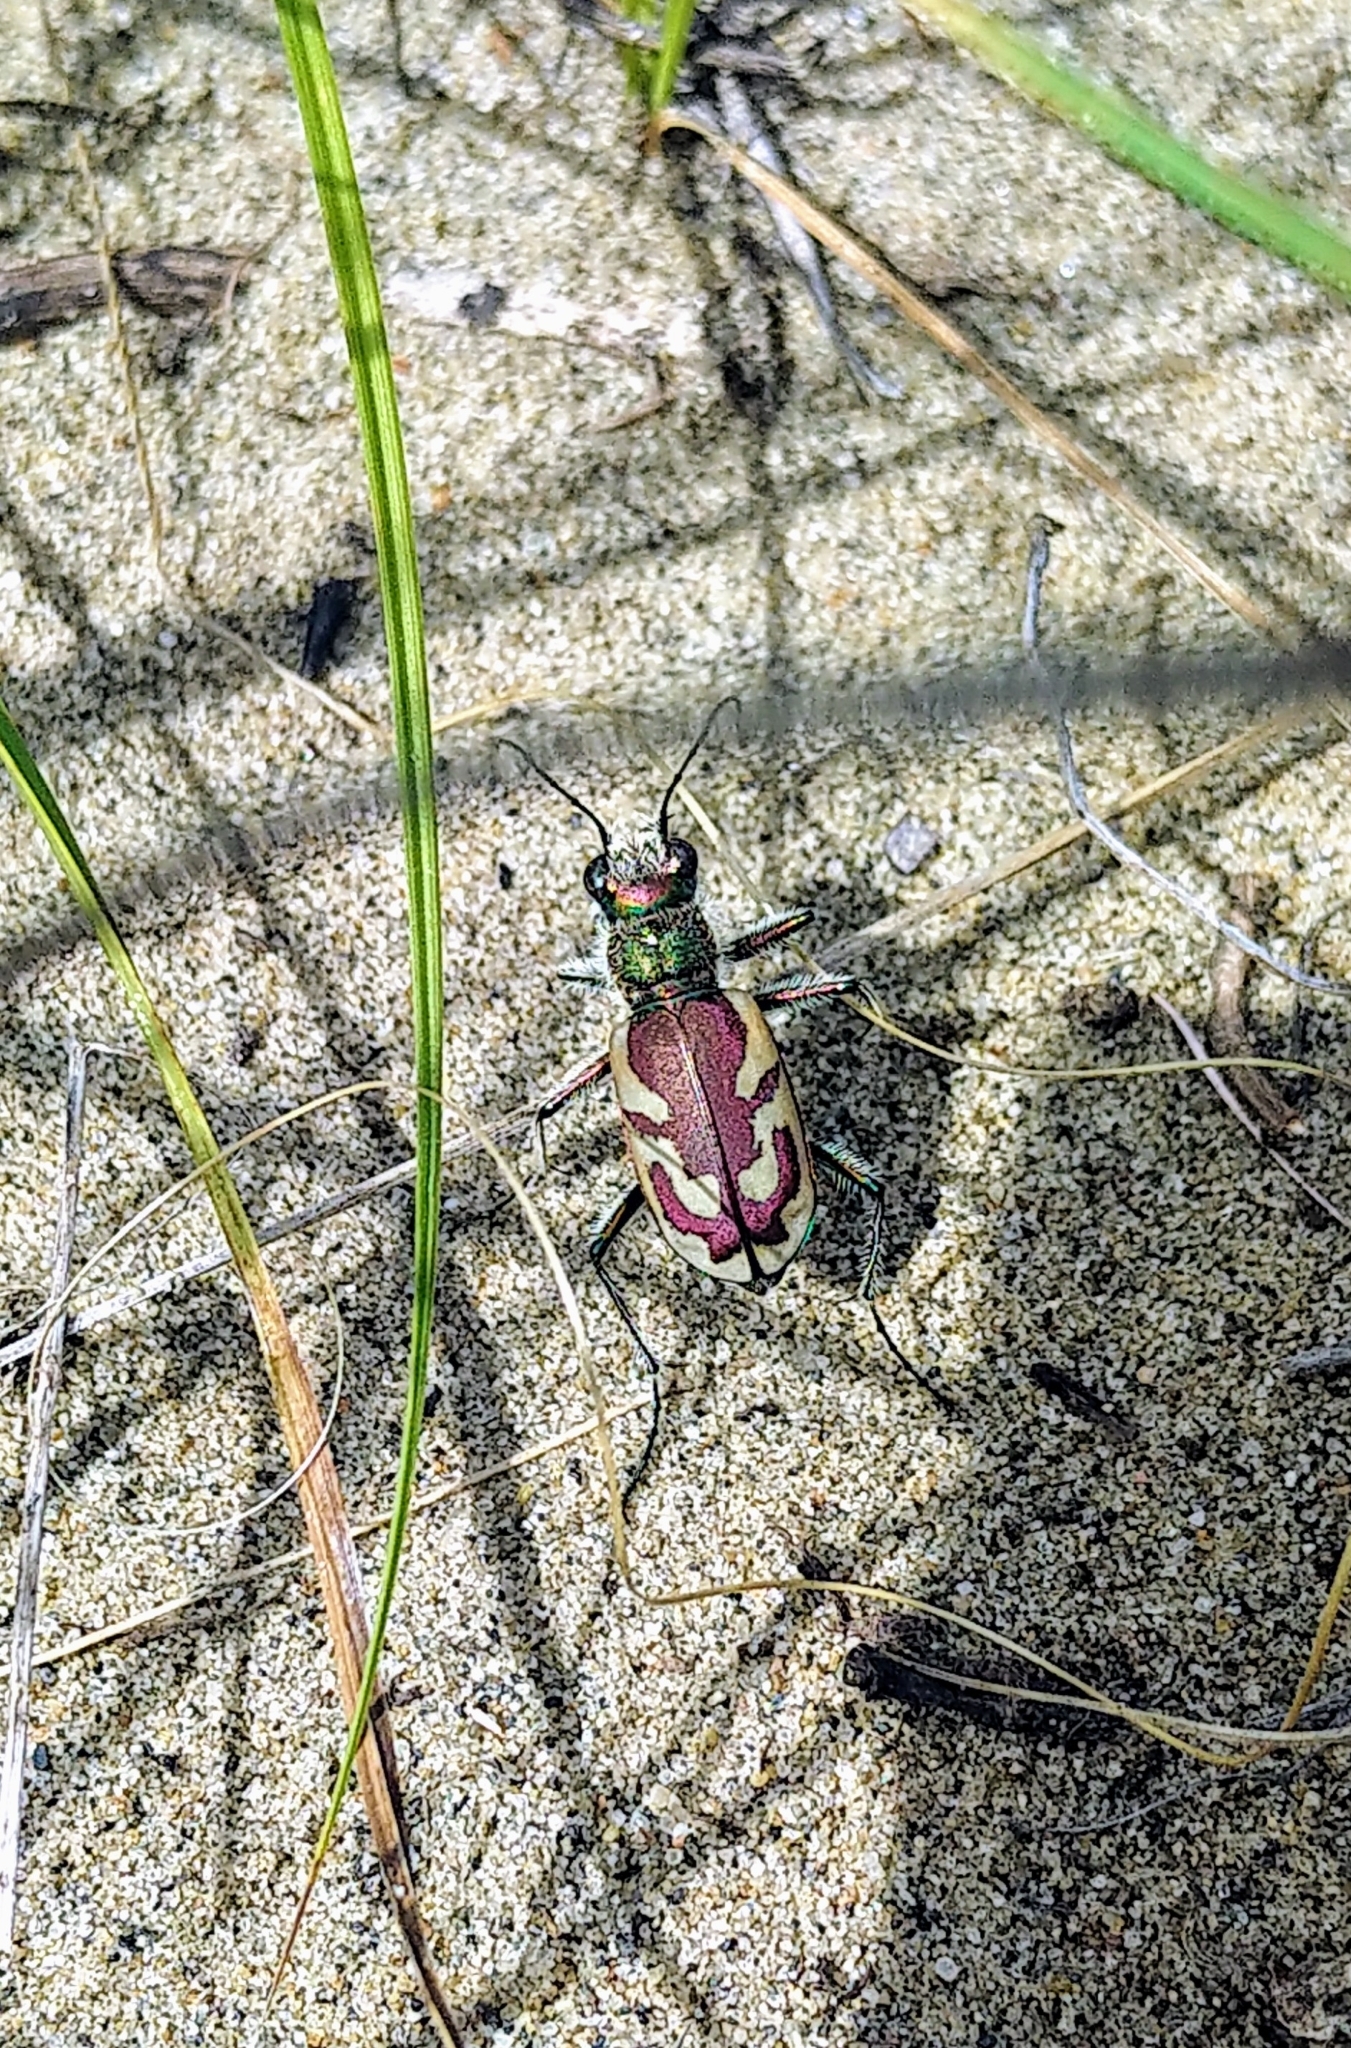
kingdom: Animalia
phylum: Arthropoda
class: Insecta
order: Coleoptera
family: Carabidae
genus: Cicindela
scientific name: Cicindela lengi
